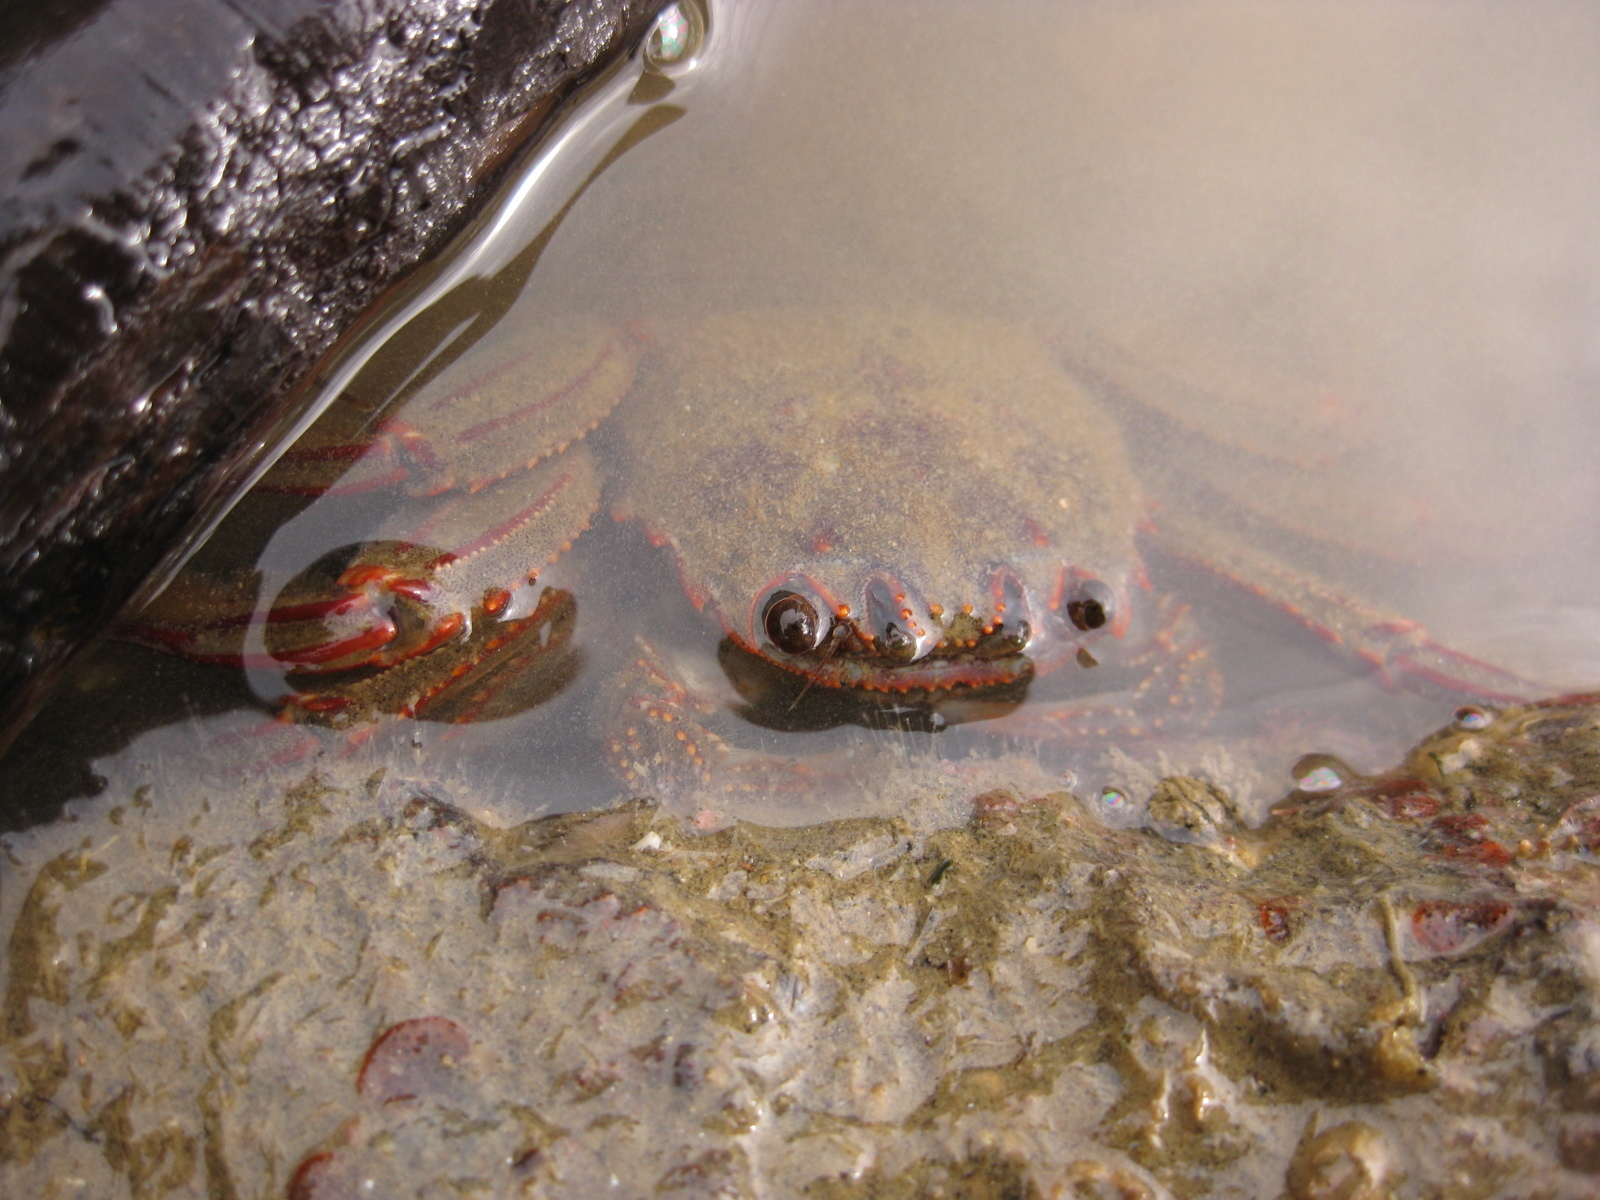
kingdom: Animalia
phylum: Arthropoda
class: Malacostraca
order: Decapoda
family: Plagusiidae
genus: Guinusia
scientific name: Guinusia chabrus
